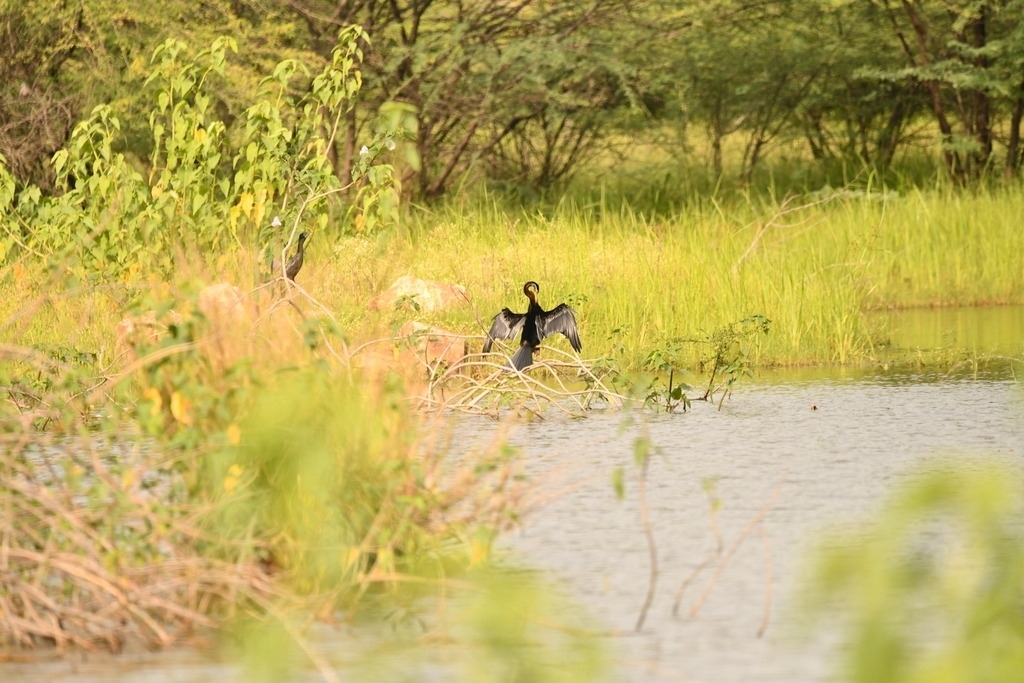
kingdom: Animalia
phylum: Chordata
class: Aves
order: Suliformes
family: Anhingidae
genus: Anhinga
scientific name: Anhinga melanogaster
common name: Oriental darter
